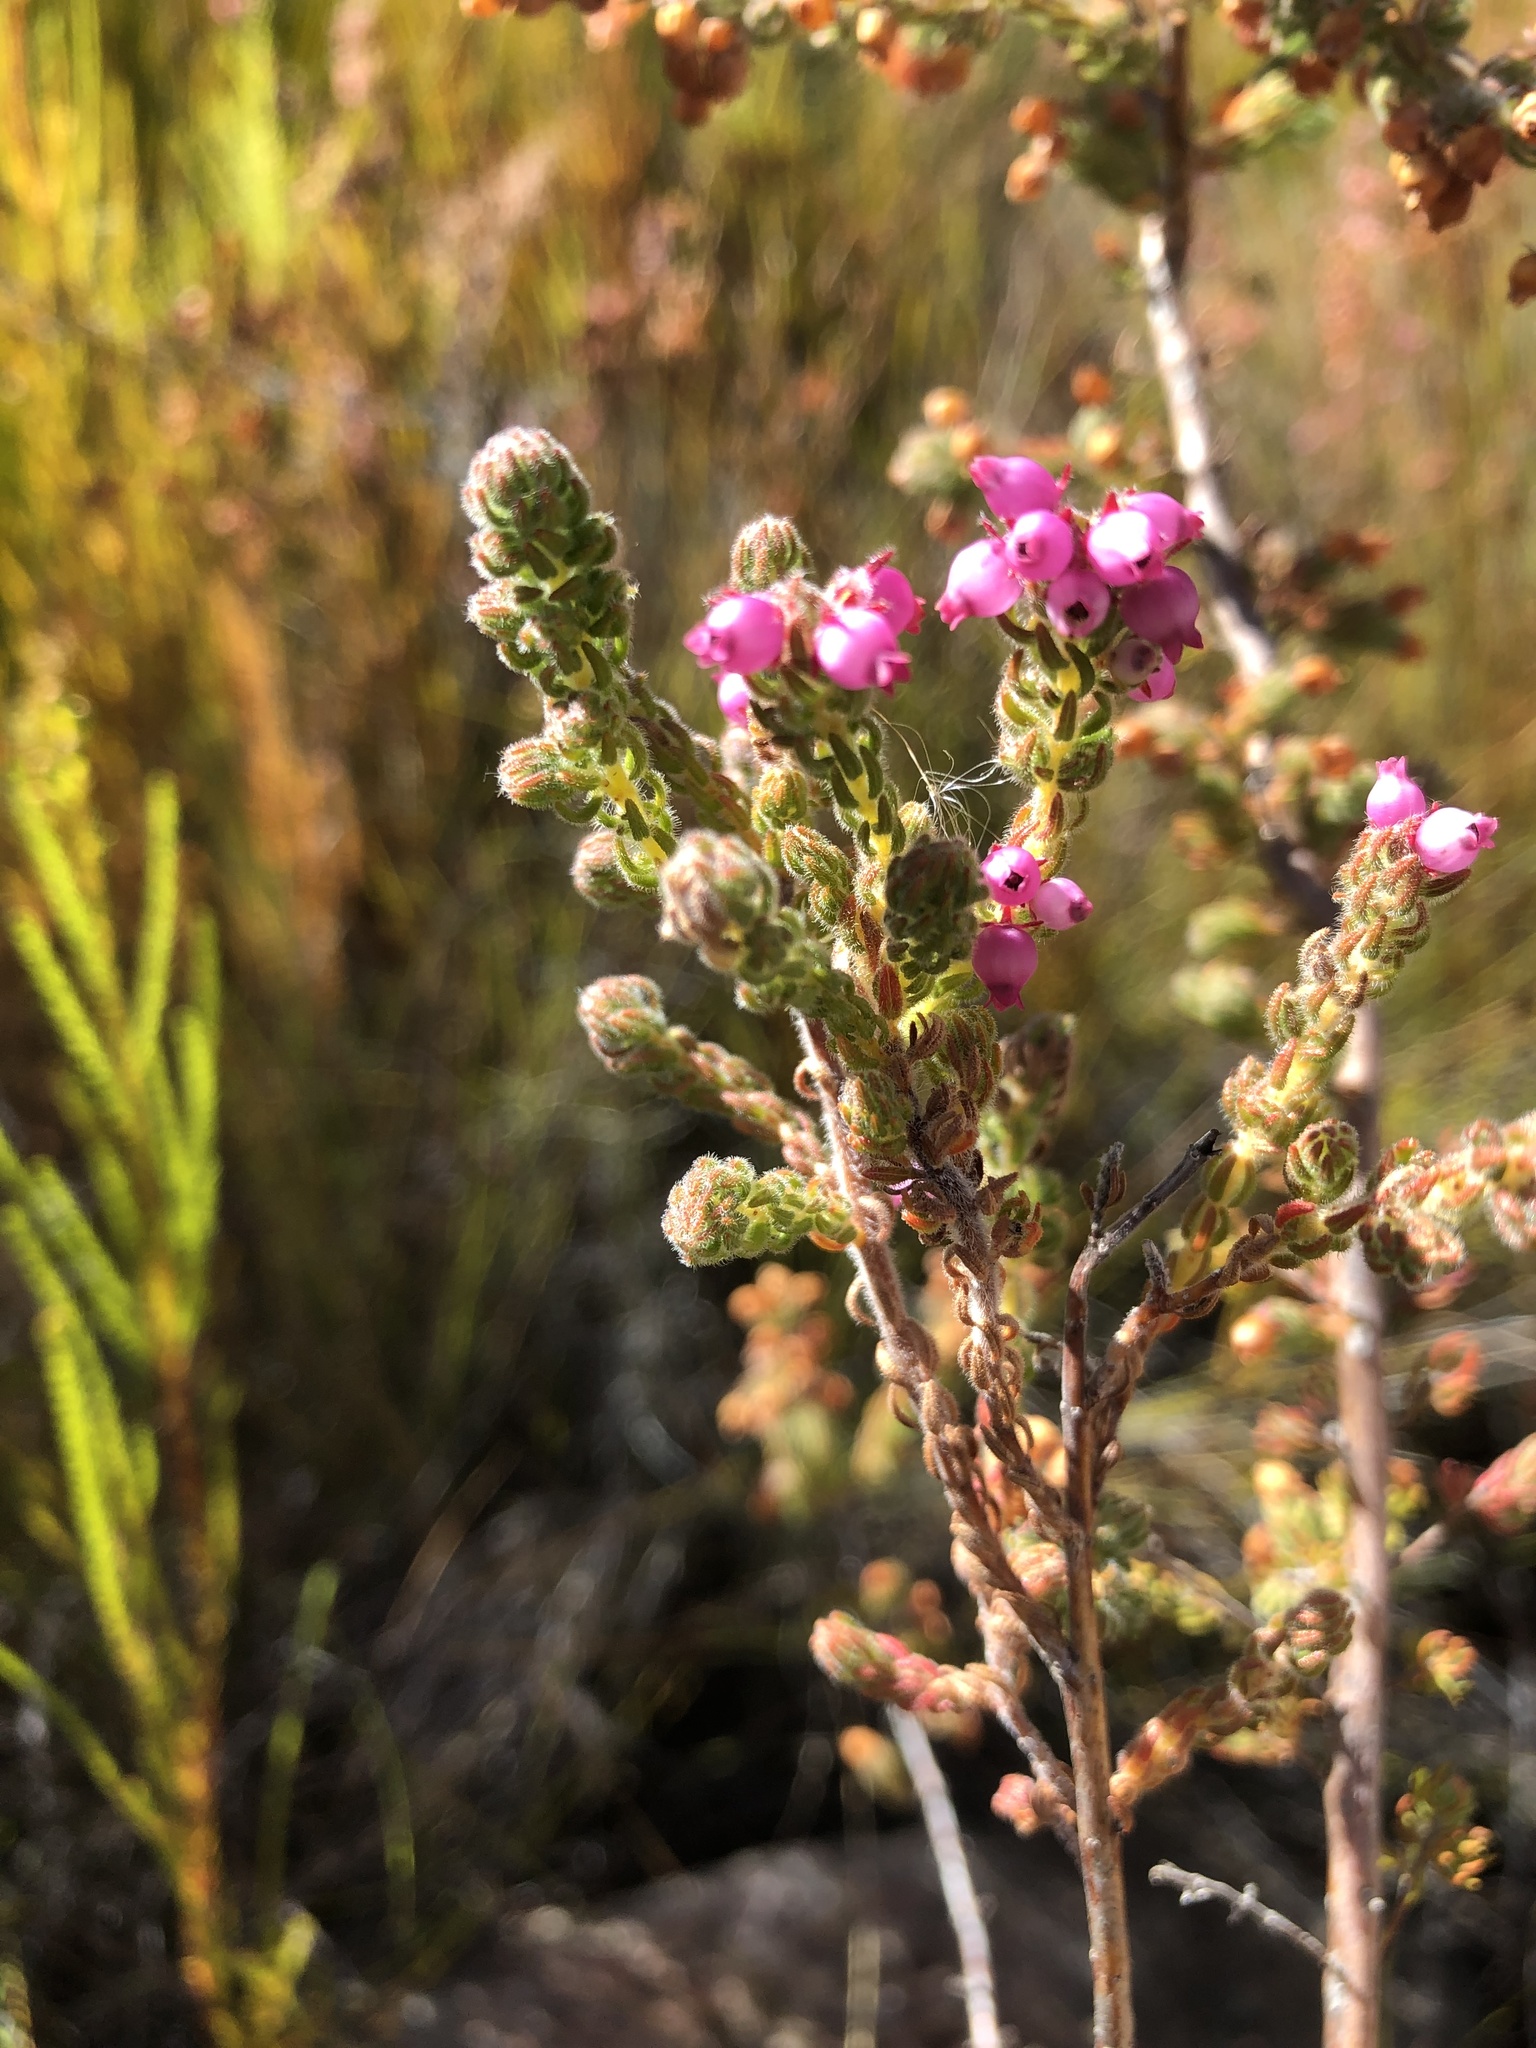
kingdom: Plantae
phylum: Tracheophyta
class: Magnoliopsida
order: Ericales
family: Ericaceae
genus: Erica
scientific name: Erica bergiana
